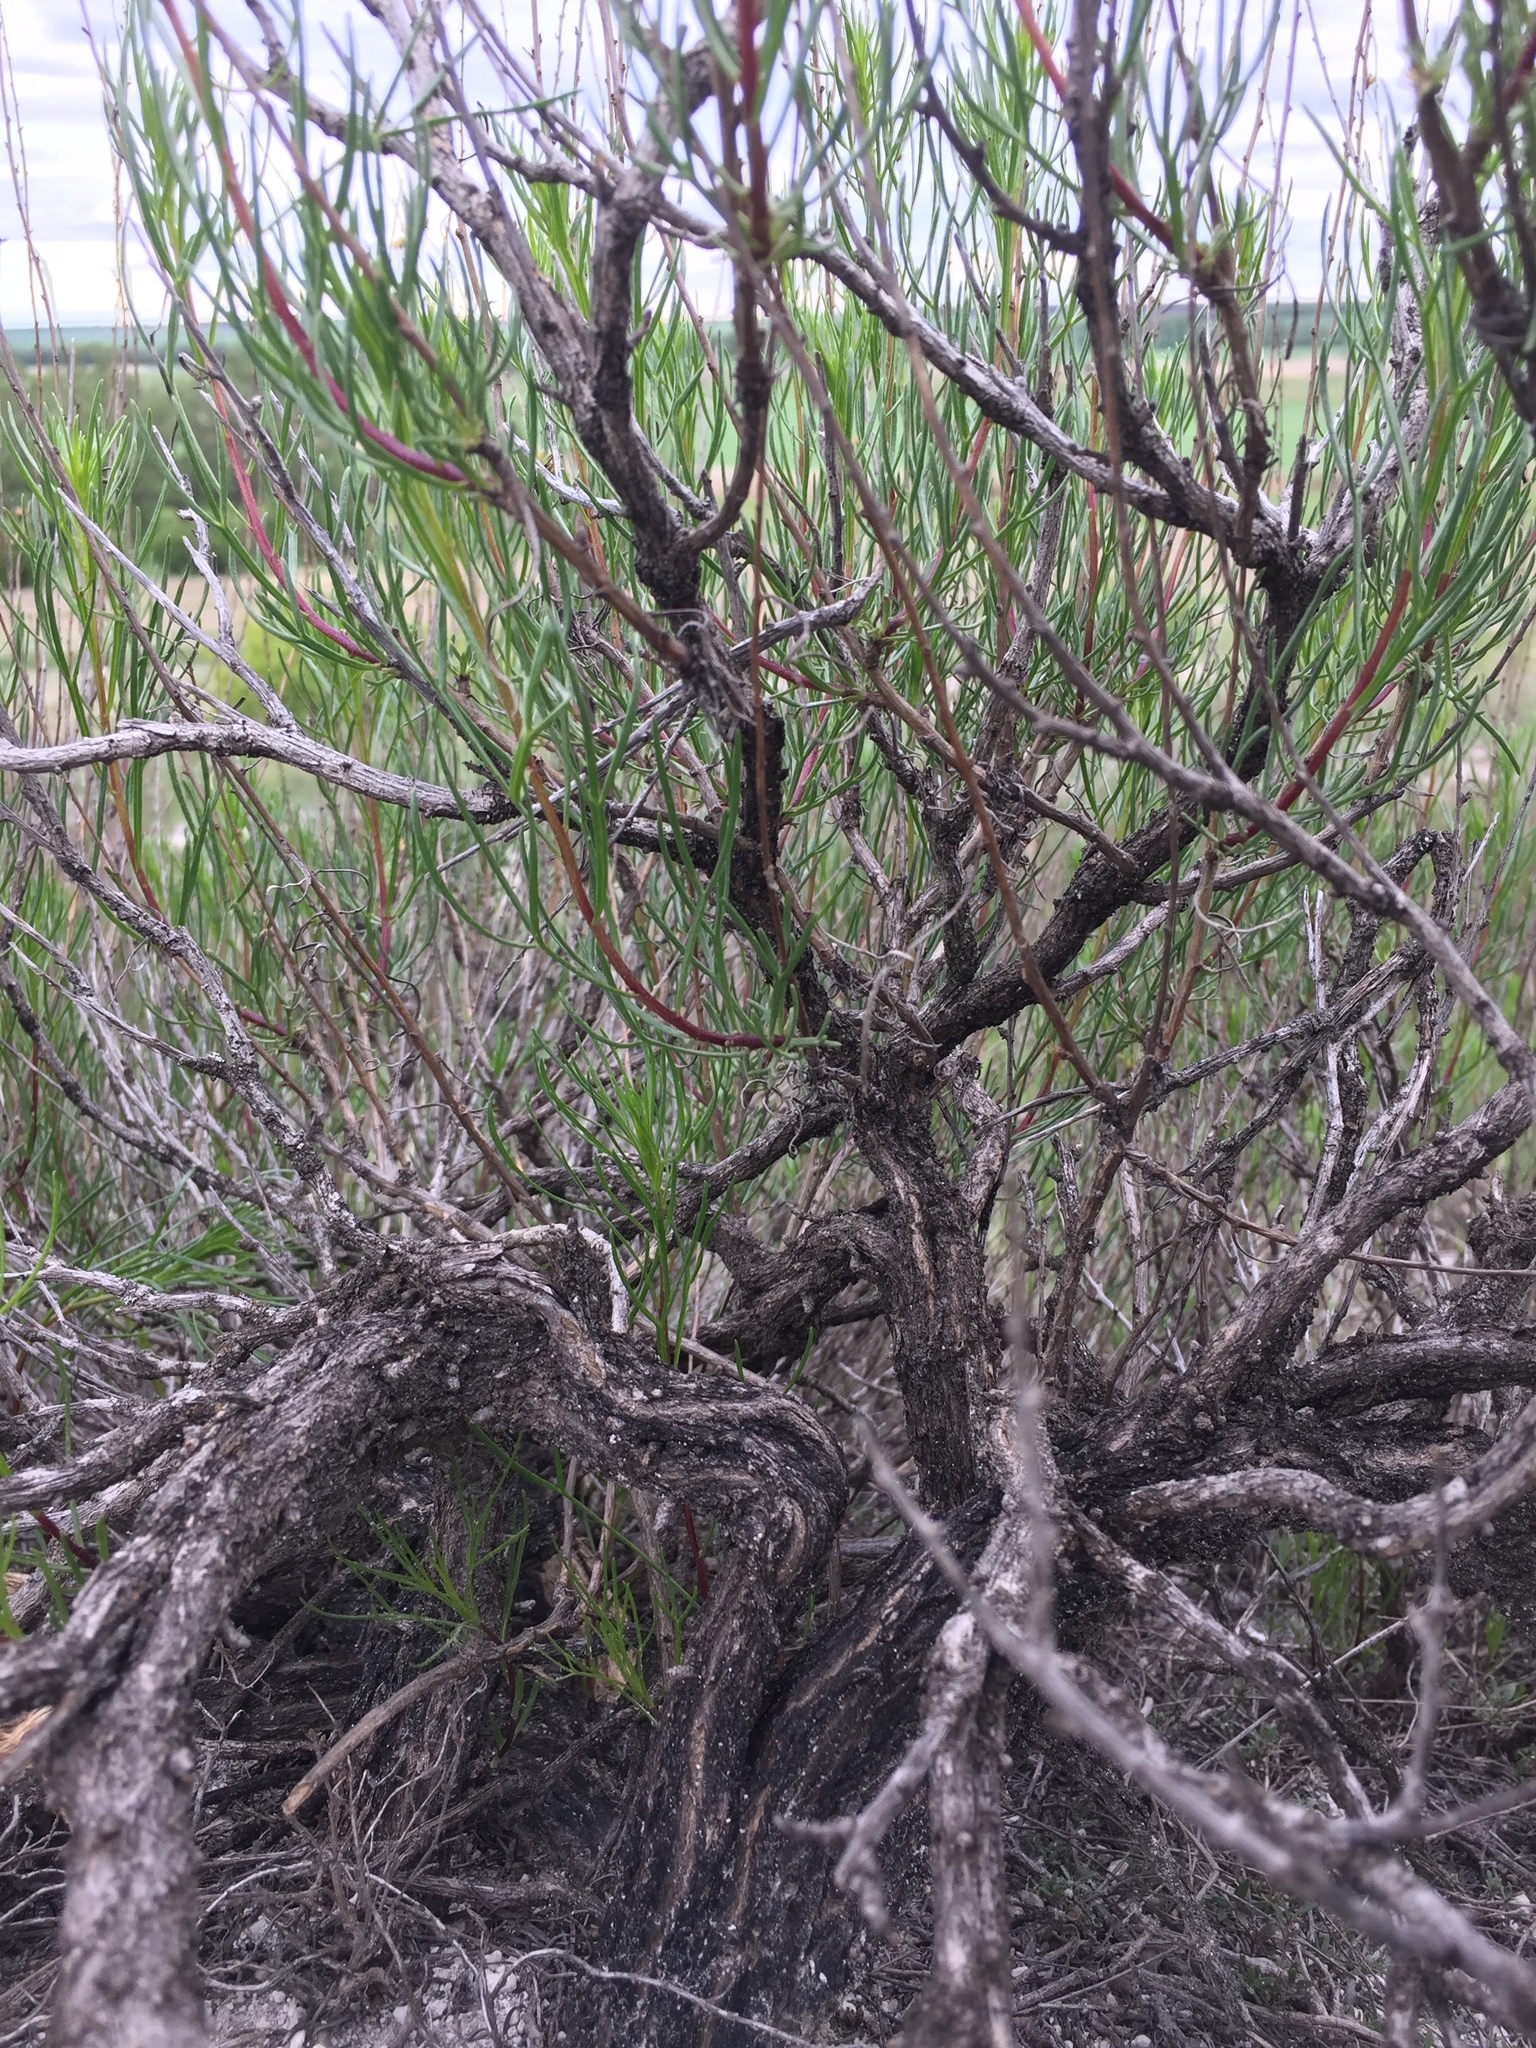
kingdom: Plantae
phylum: Tracheophyta
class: Magnoliopsida
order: Asterales
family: Asteraceae
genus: Artemisia
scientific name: Artemisia salsoloides
